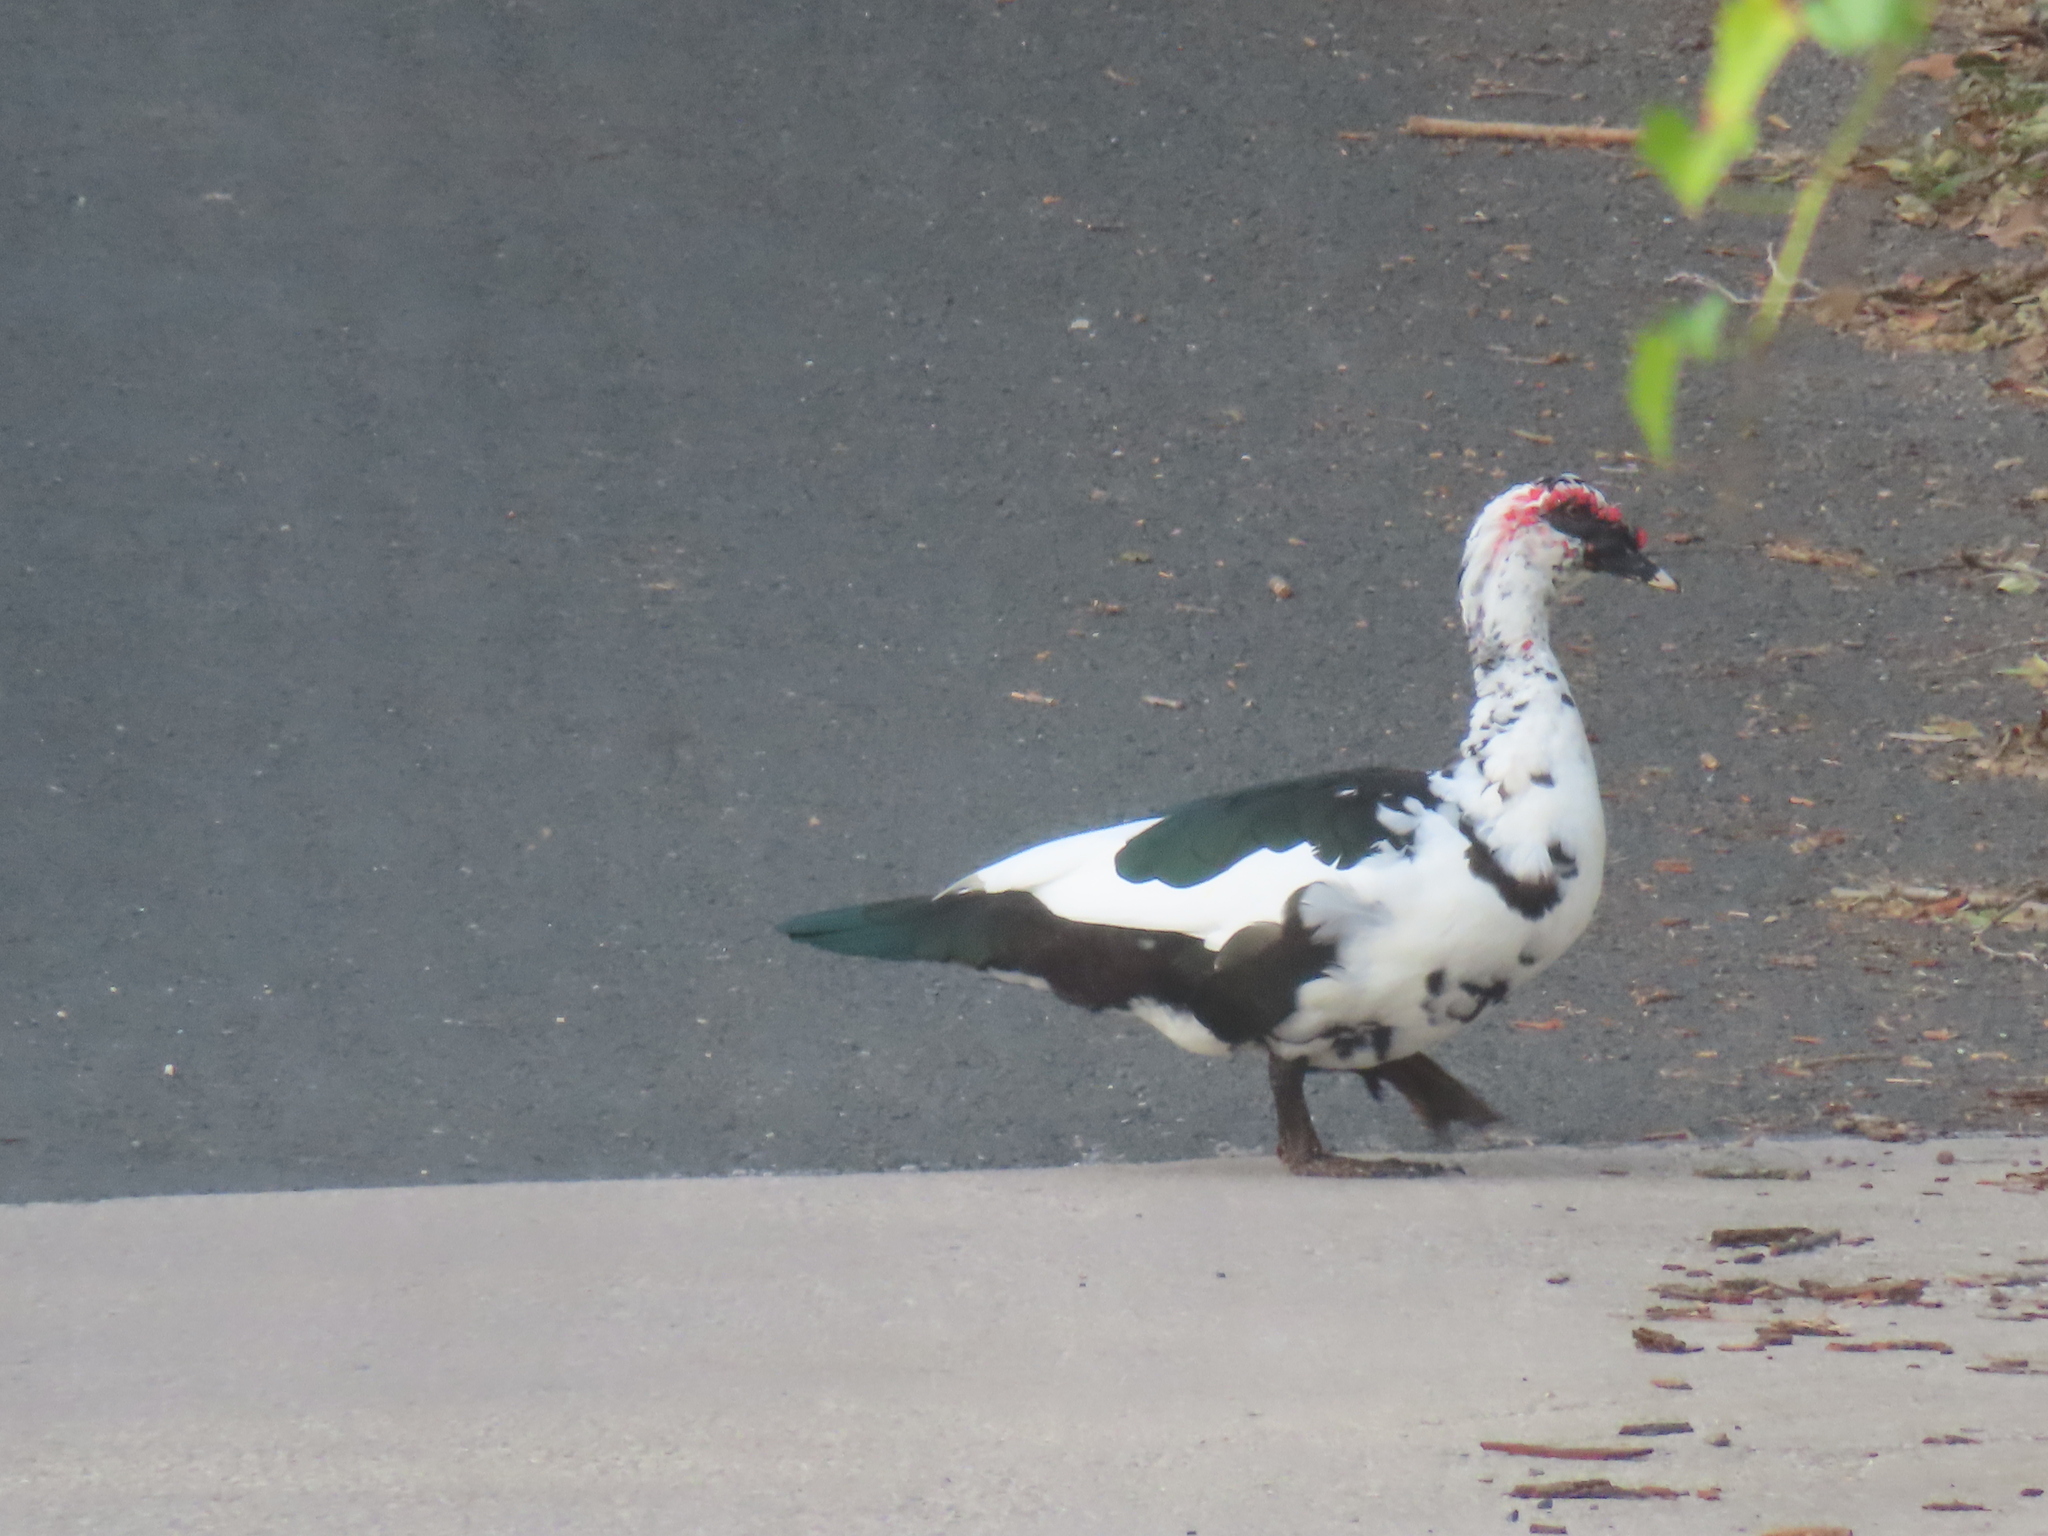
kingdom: Animalia
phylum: Chordata
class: Aves
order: Anseriformes
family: Anatidae
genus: Cairina
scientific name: Cairina moschata
